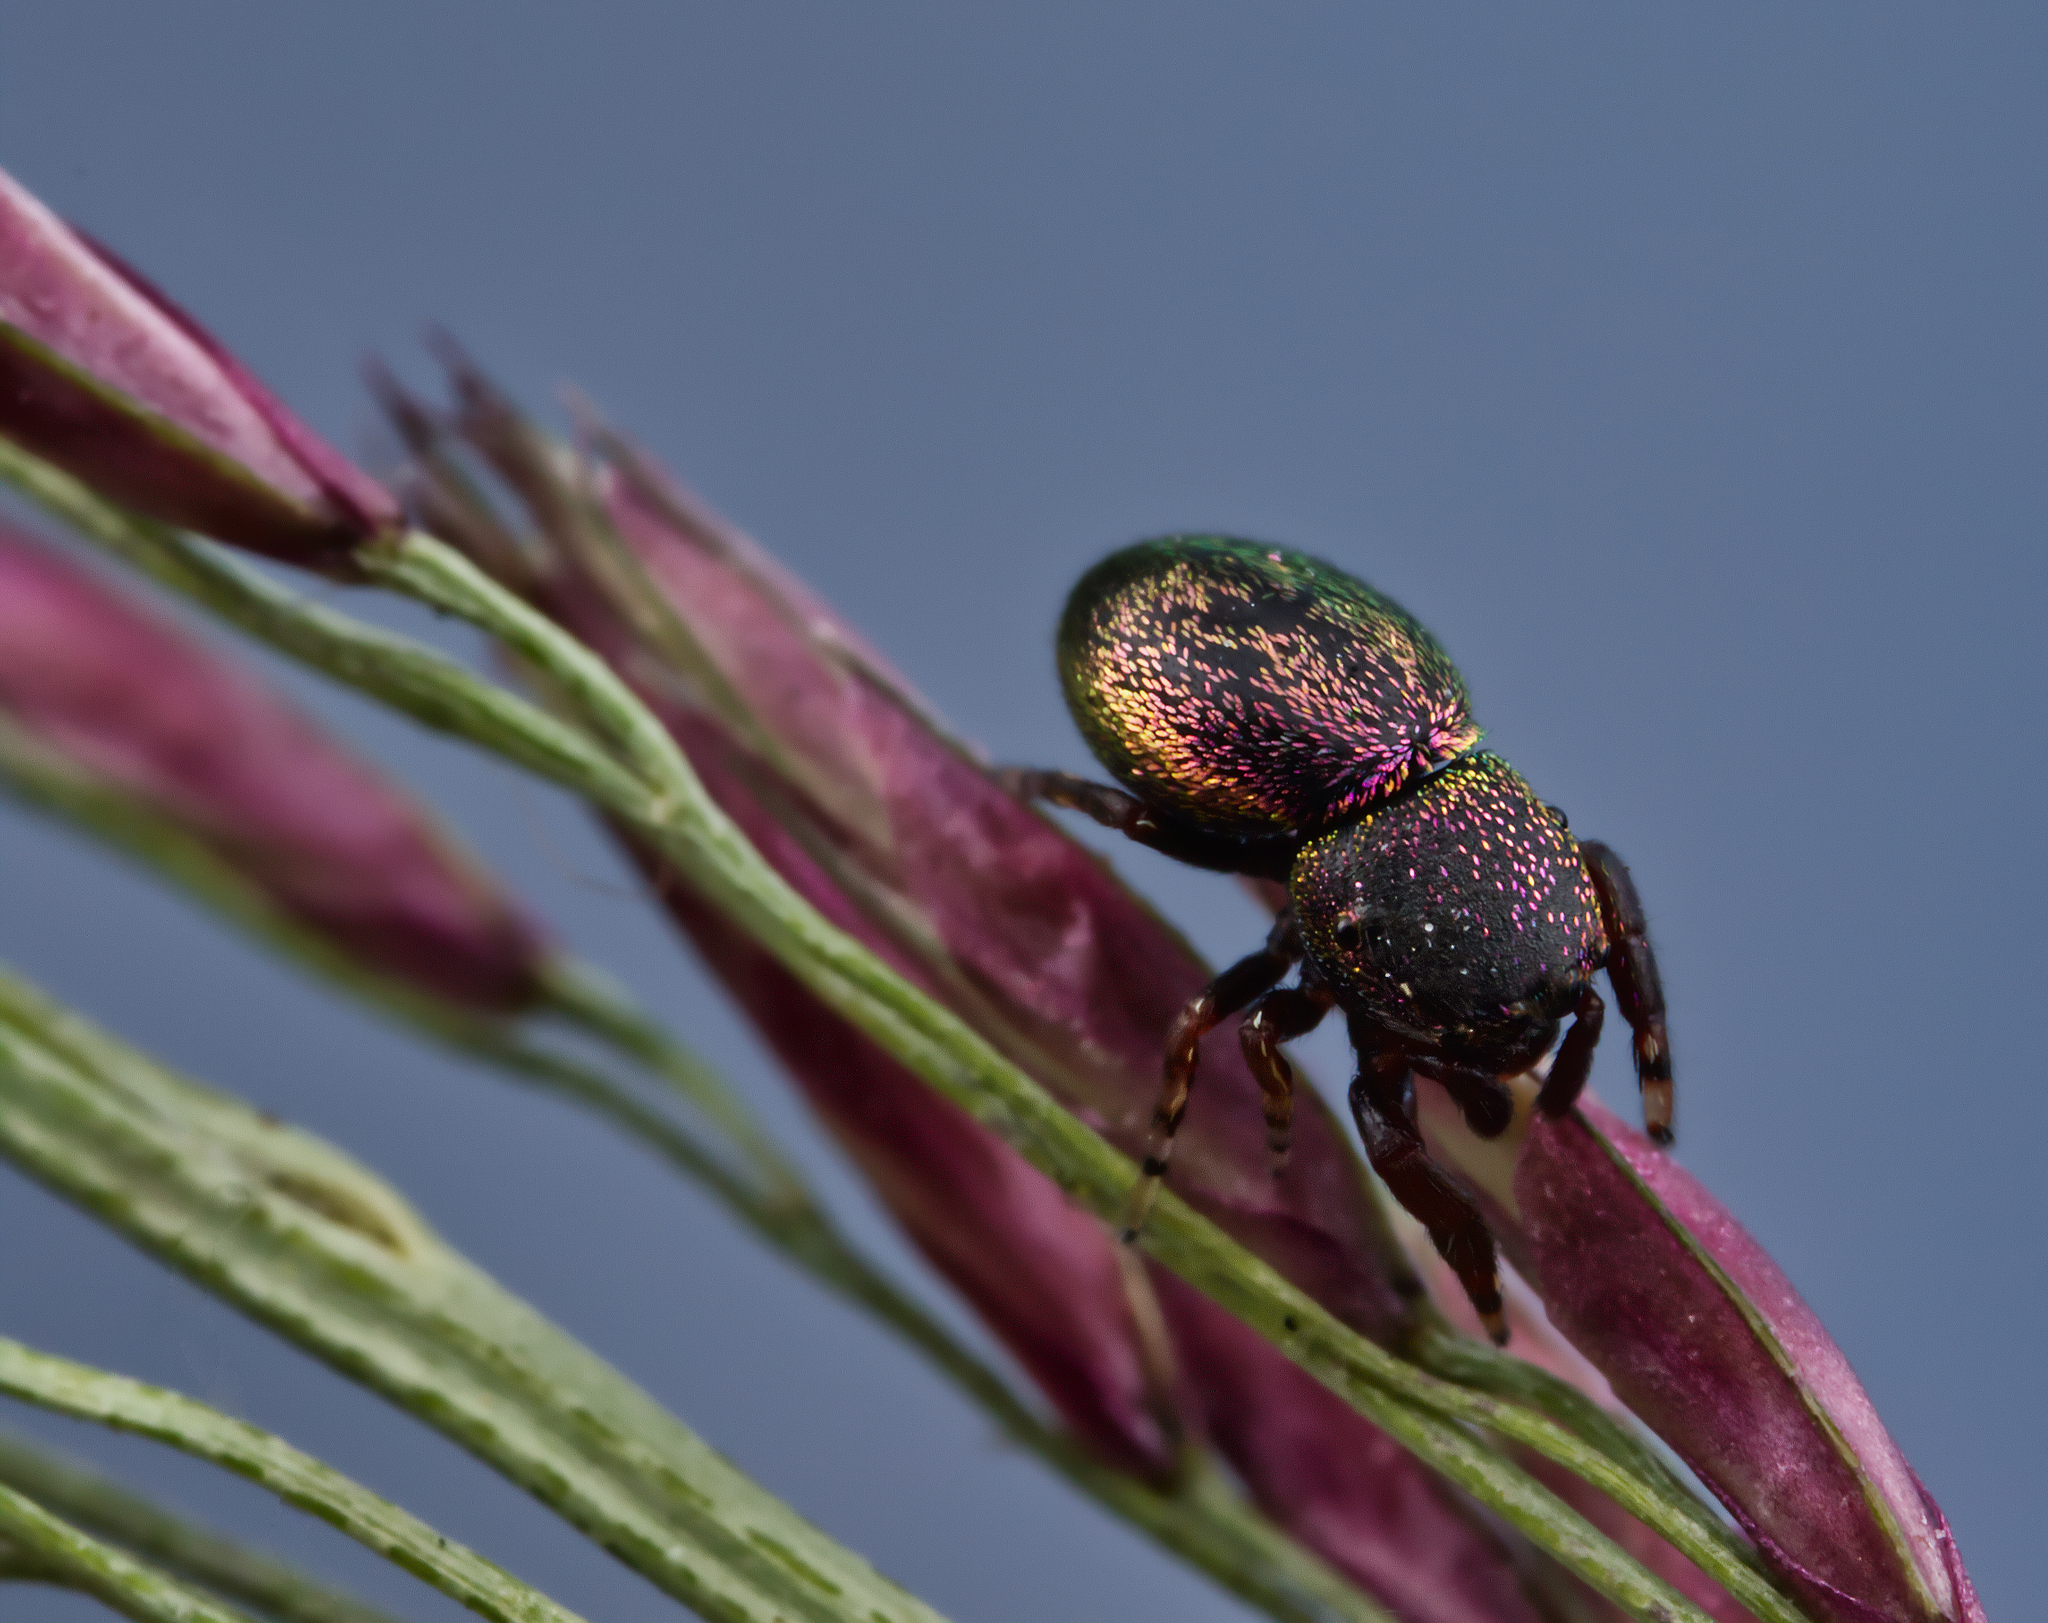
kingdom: Animalia
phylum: Arthropoda
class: Arachnida
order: Araneae
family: Salticidae
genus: Sassacus
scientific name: Sassacus cyaneus
